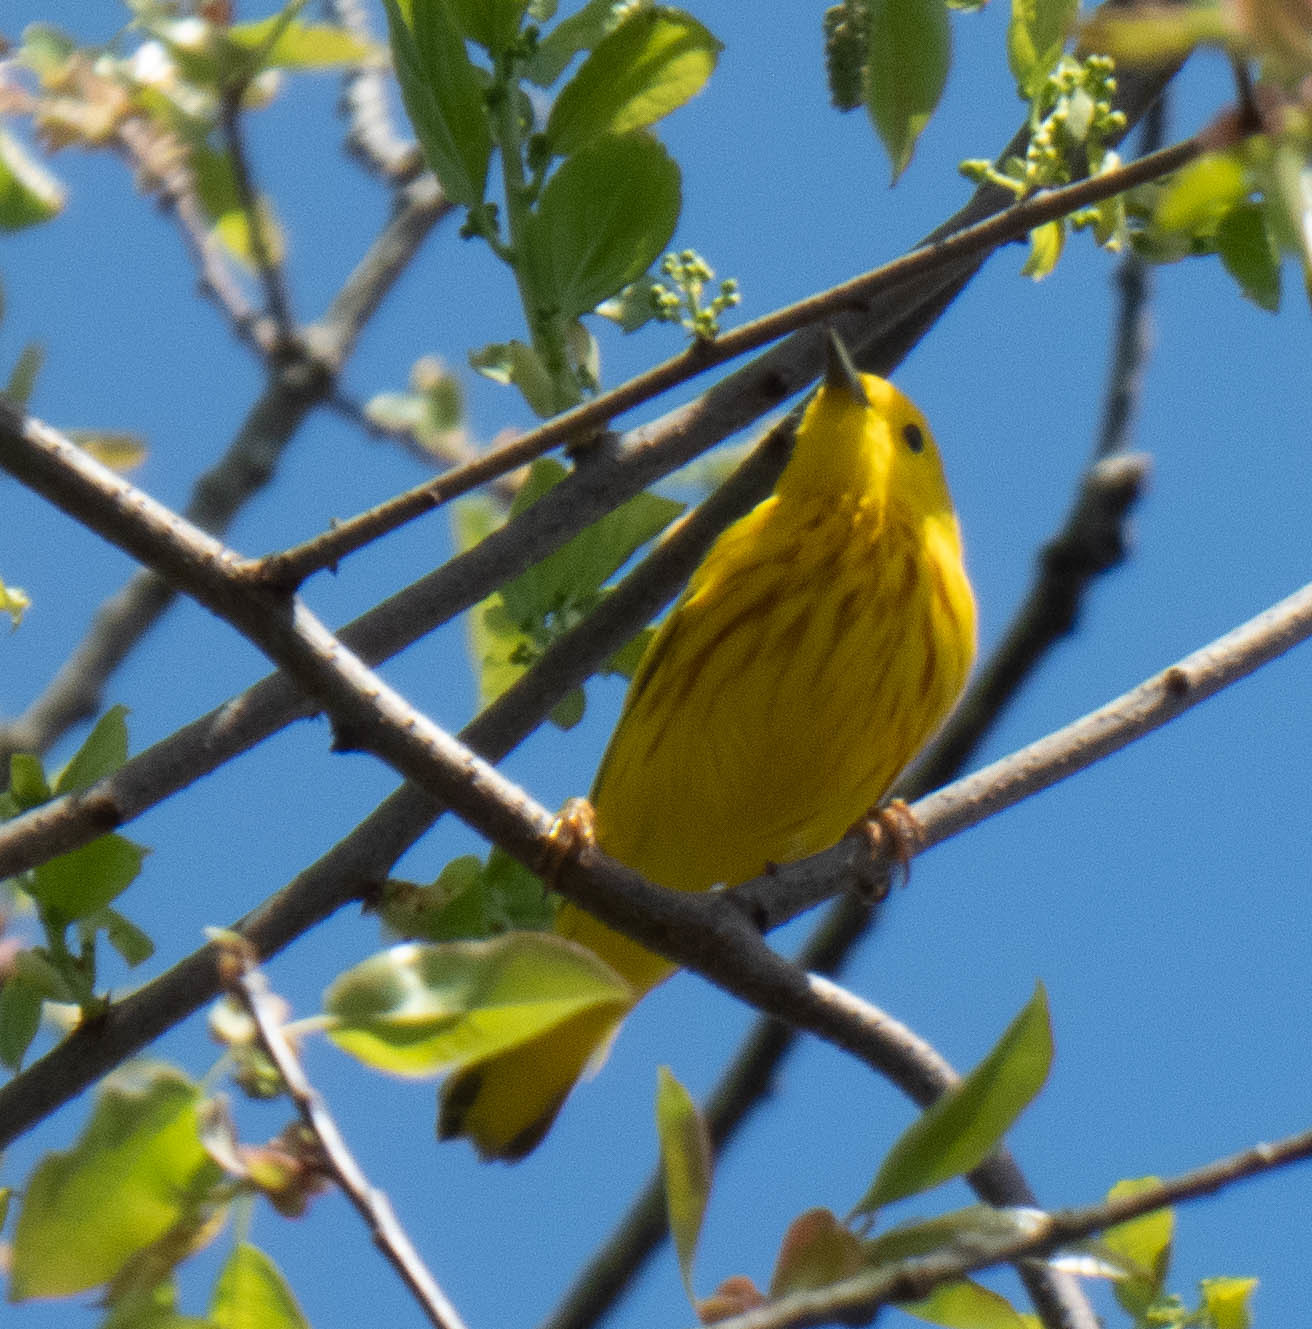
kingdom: Animalia
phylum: Chordata
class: Aves
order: Passeriformes
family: Parulidae
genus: Setophaga
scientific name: Setophaga petechia
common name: Yellow warbler
